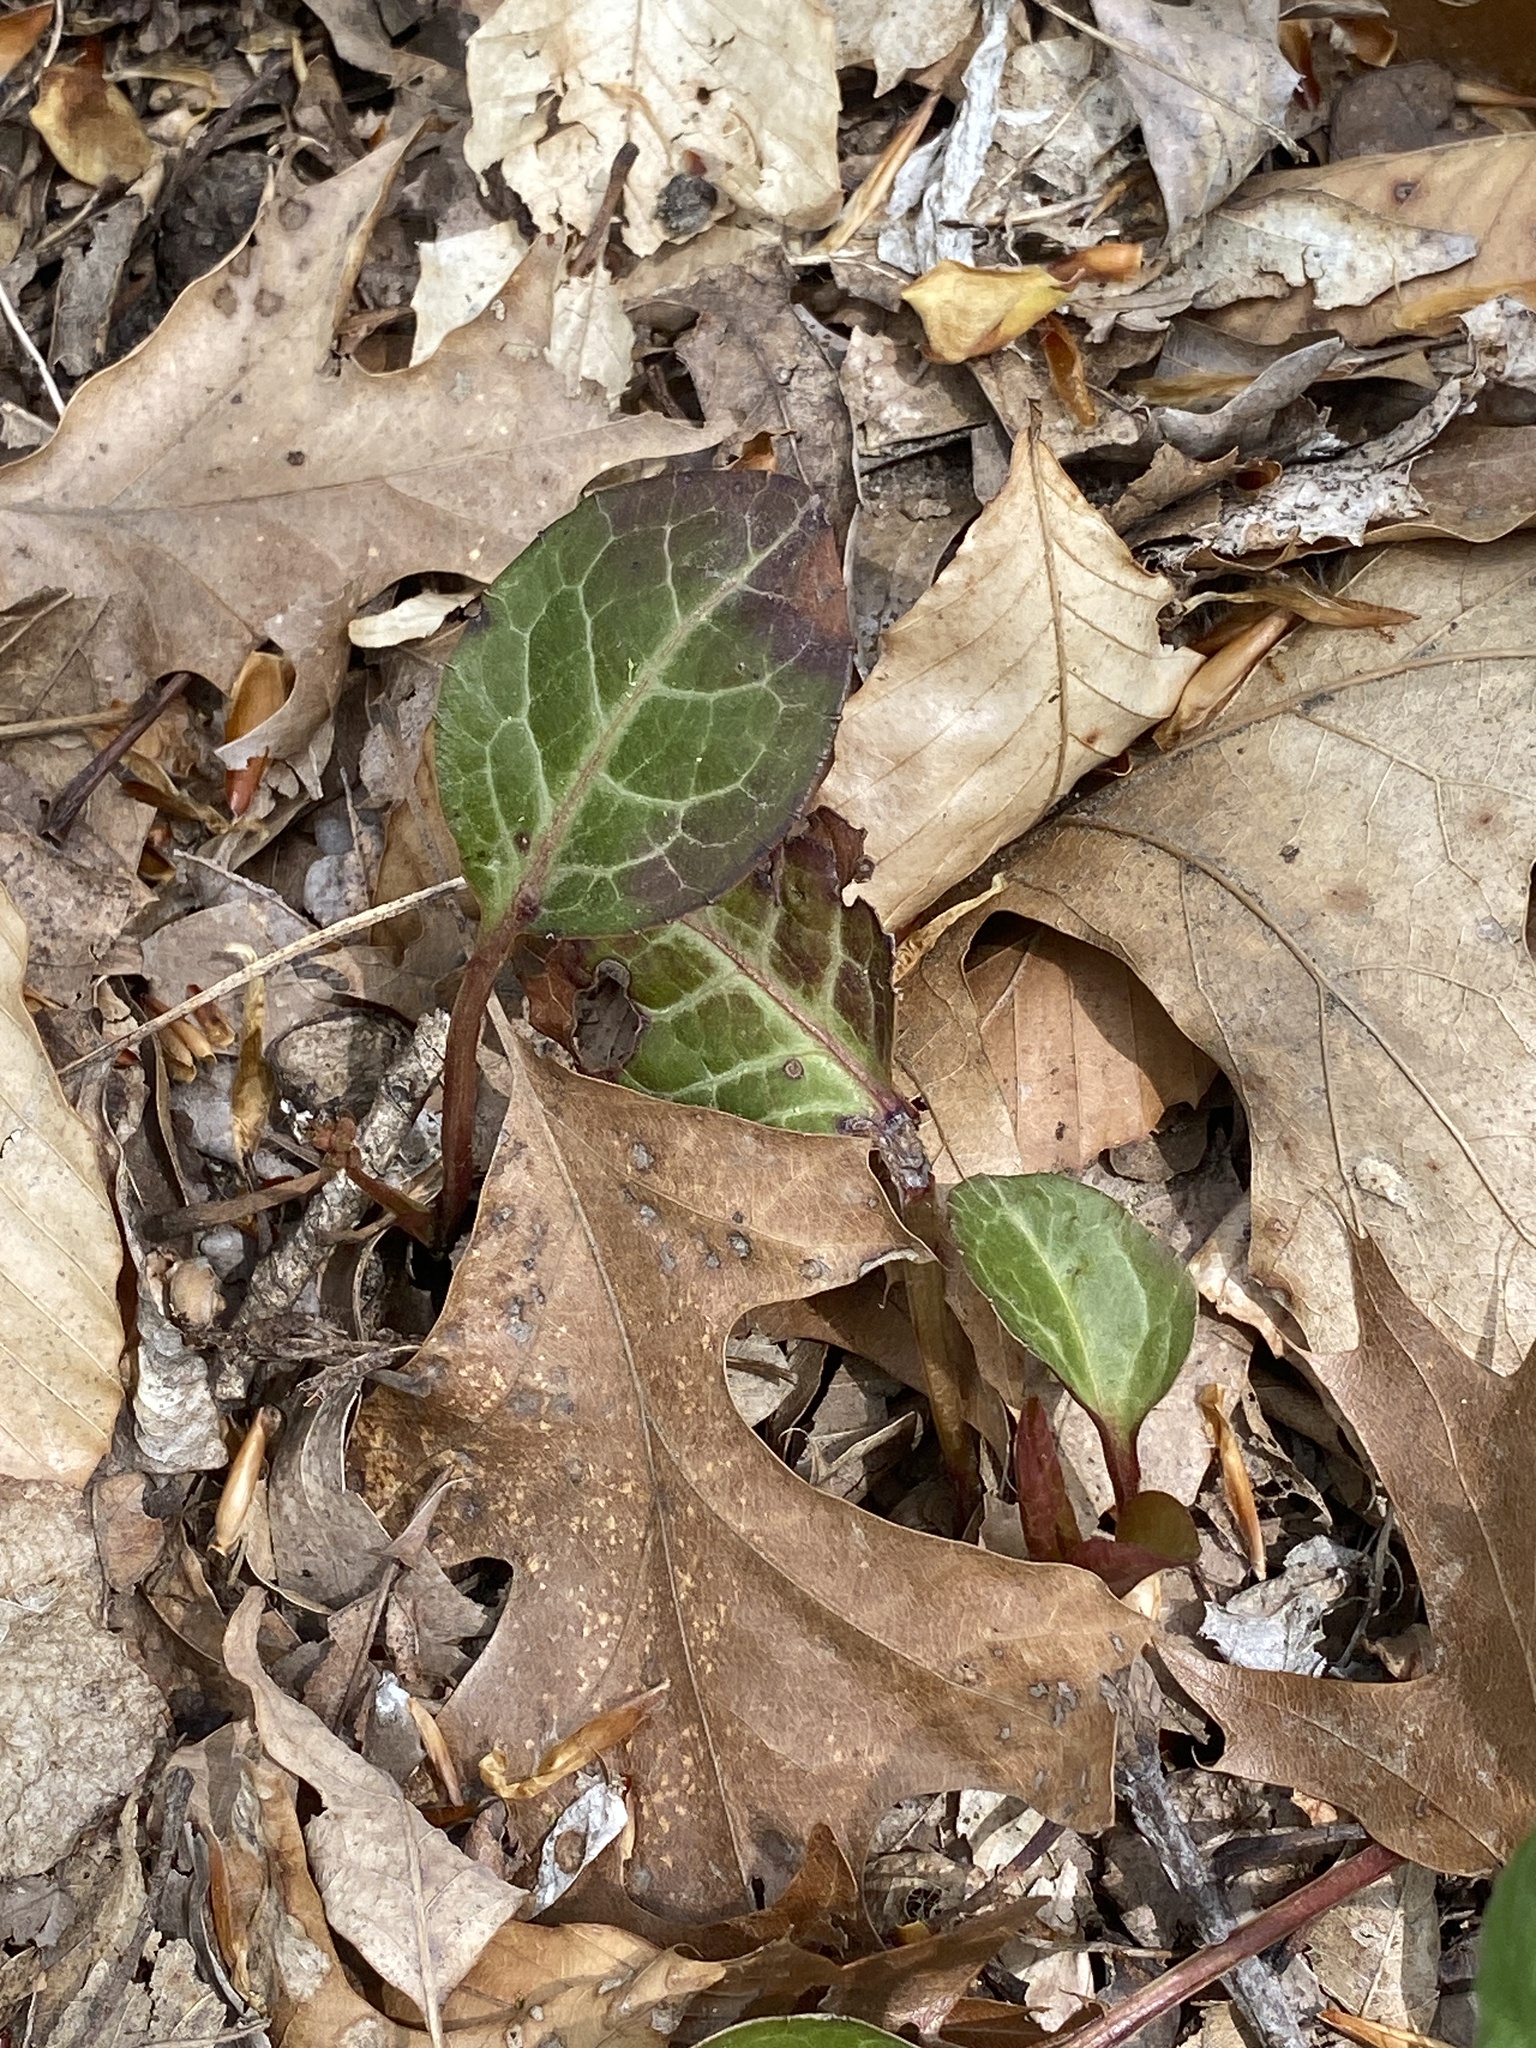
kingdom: Plantae
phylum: Tracheophyta
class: Magnoliopsida
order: Ericales
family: Ericaceae
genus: Pyrola
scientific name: Pyrola americana
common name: American wintergreen
